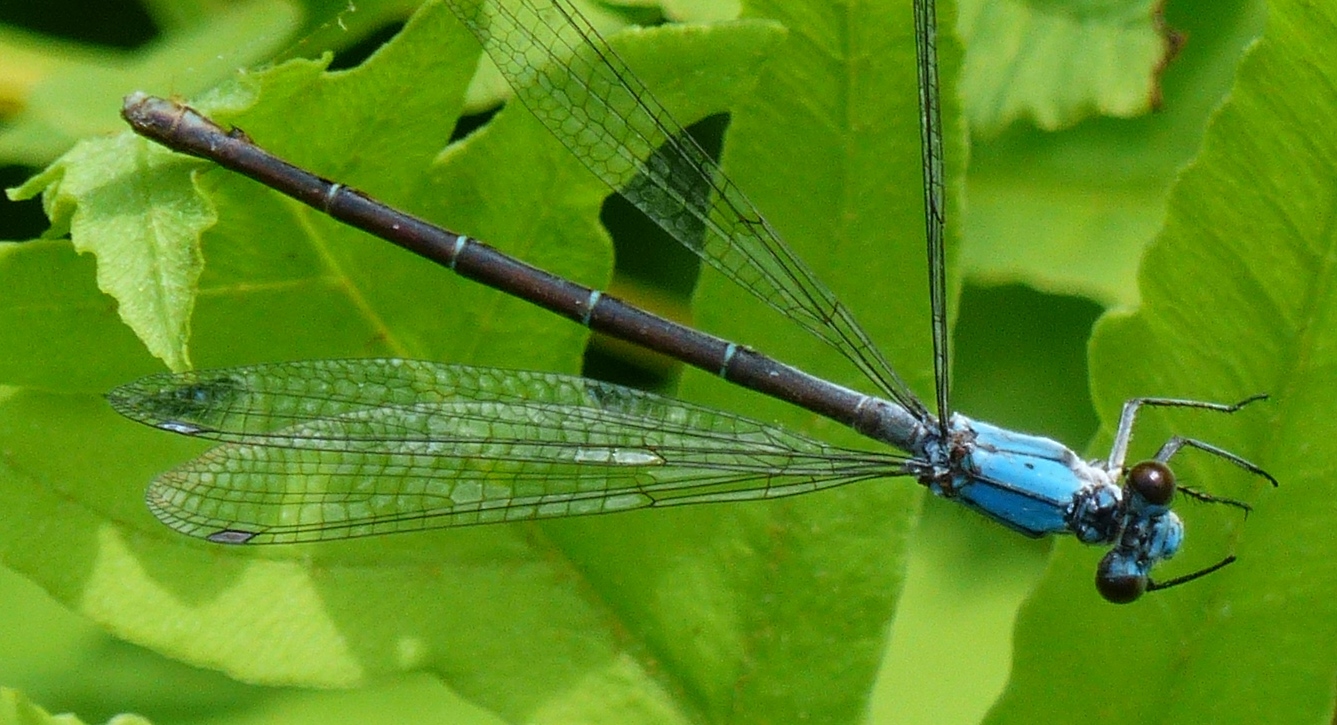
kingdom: Animalia
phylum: Arthropoda
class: Insecta
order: Odonata
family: Coenagrionidae
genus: Argia
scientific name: Argia apicalis
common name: Blue-fronted dancer
